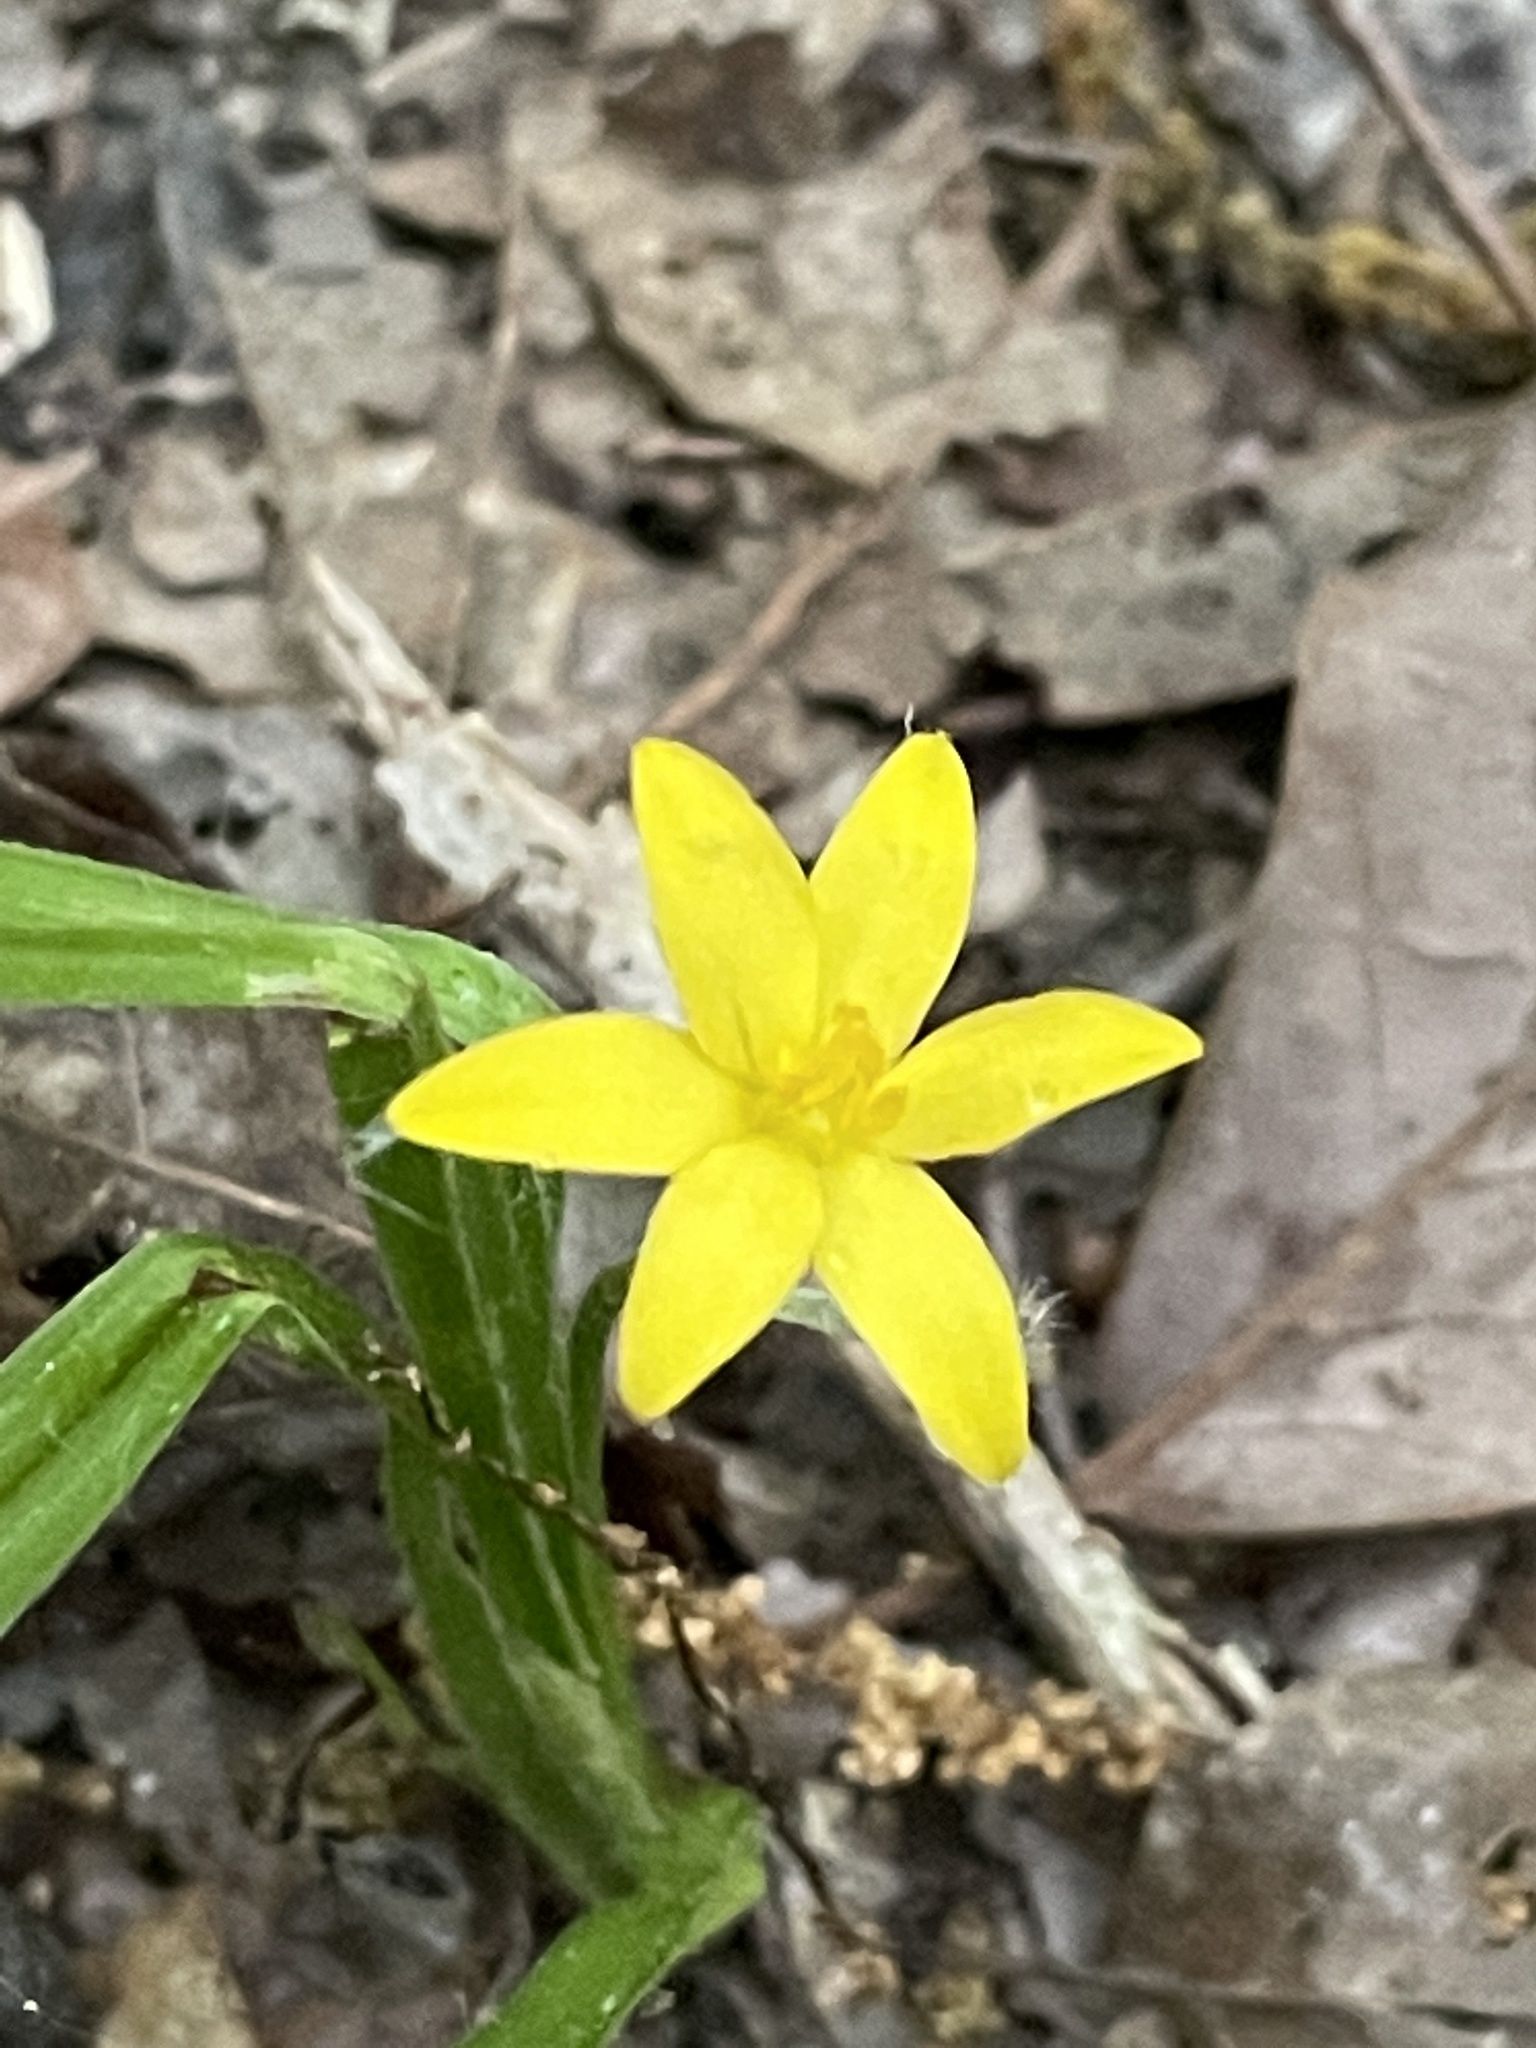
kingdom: Plantae
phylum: Tracheophyta
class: Liliopsida
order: Asparagales
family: Hypoxidaceae
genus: Hypoxis
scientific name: Hypoxis hirsuta
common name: Common goldstar
